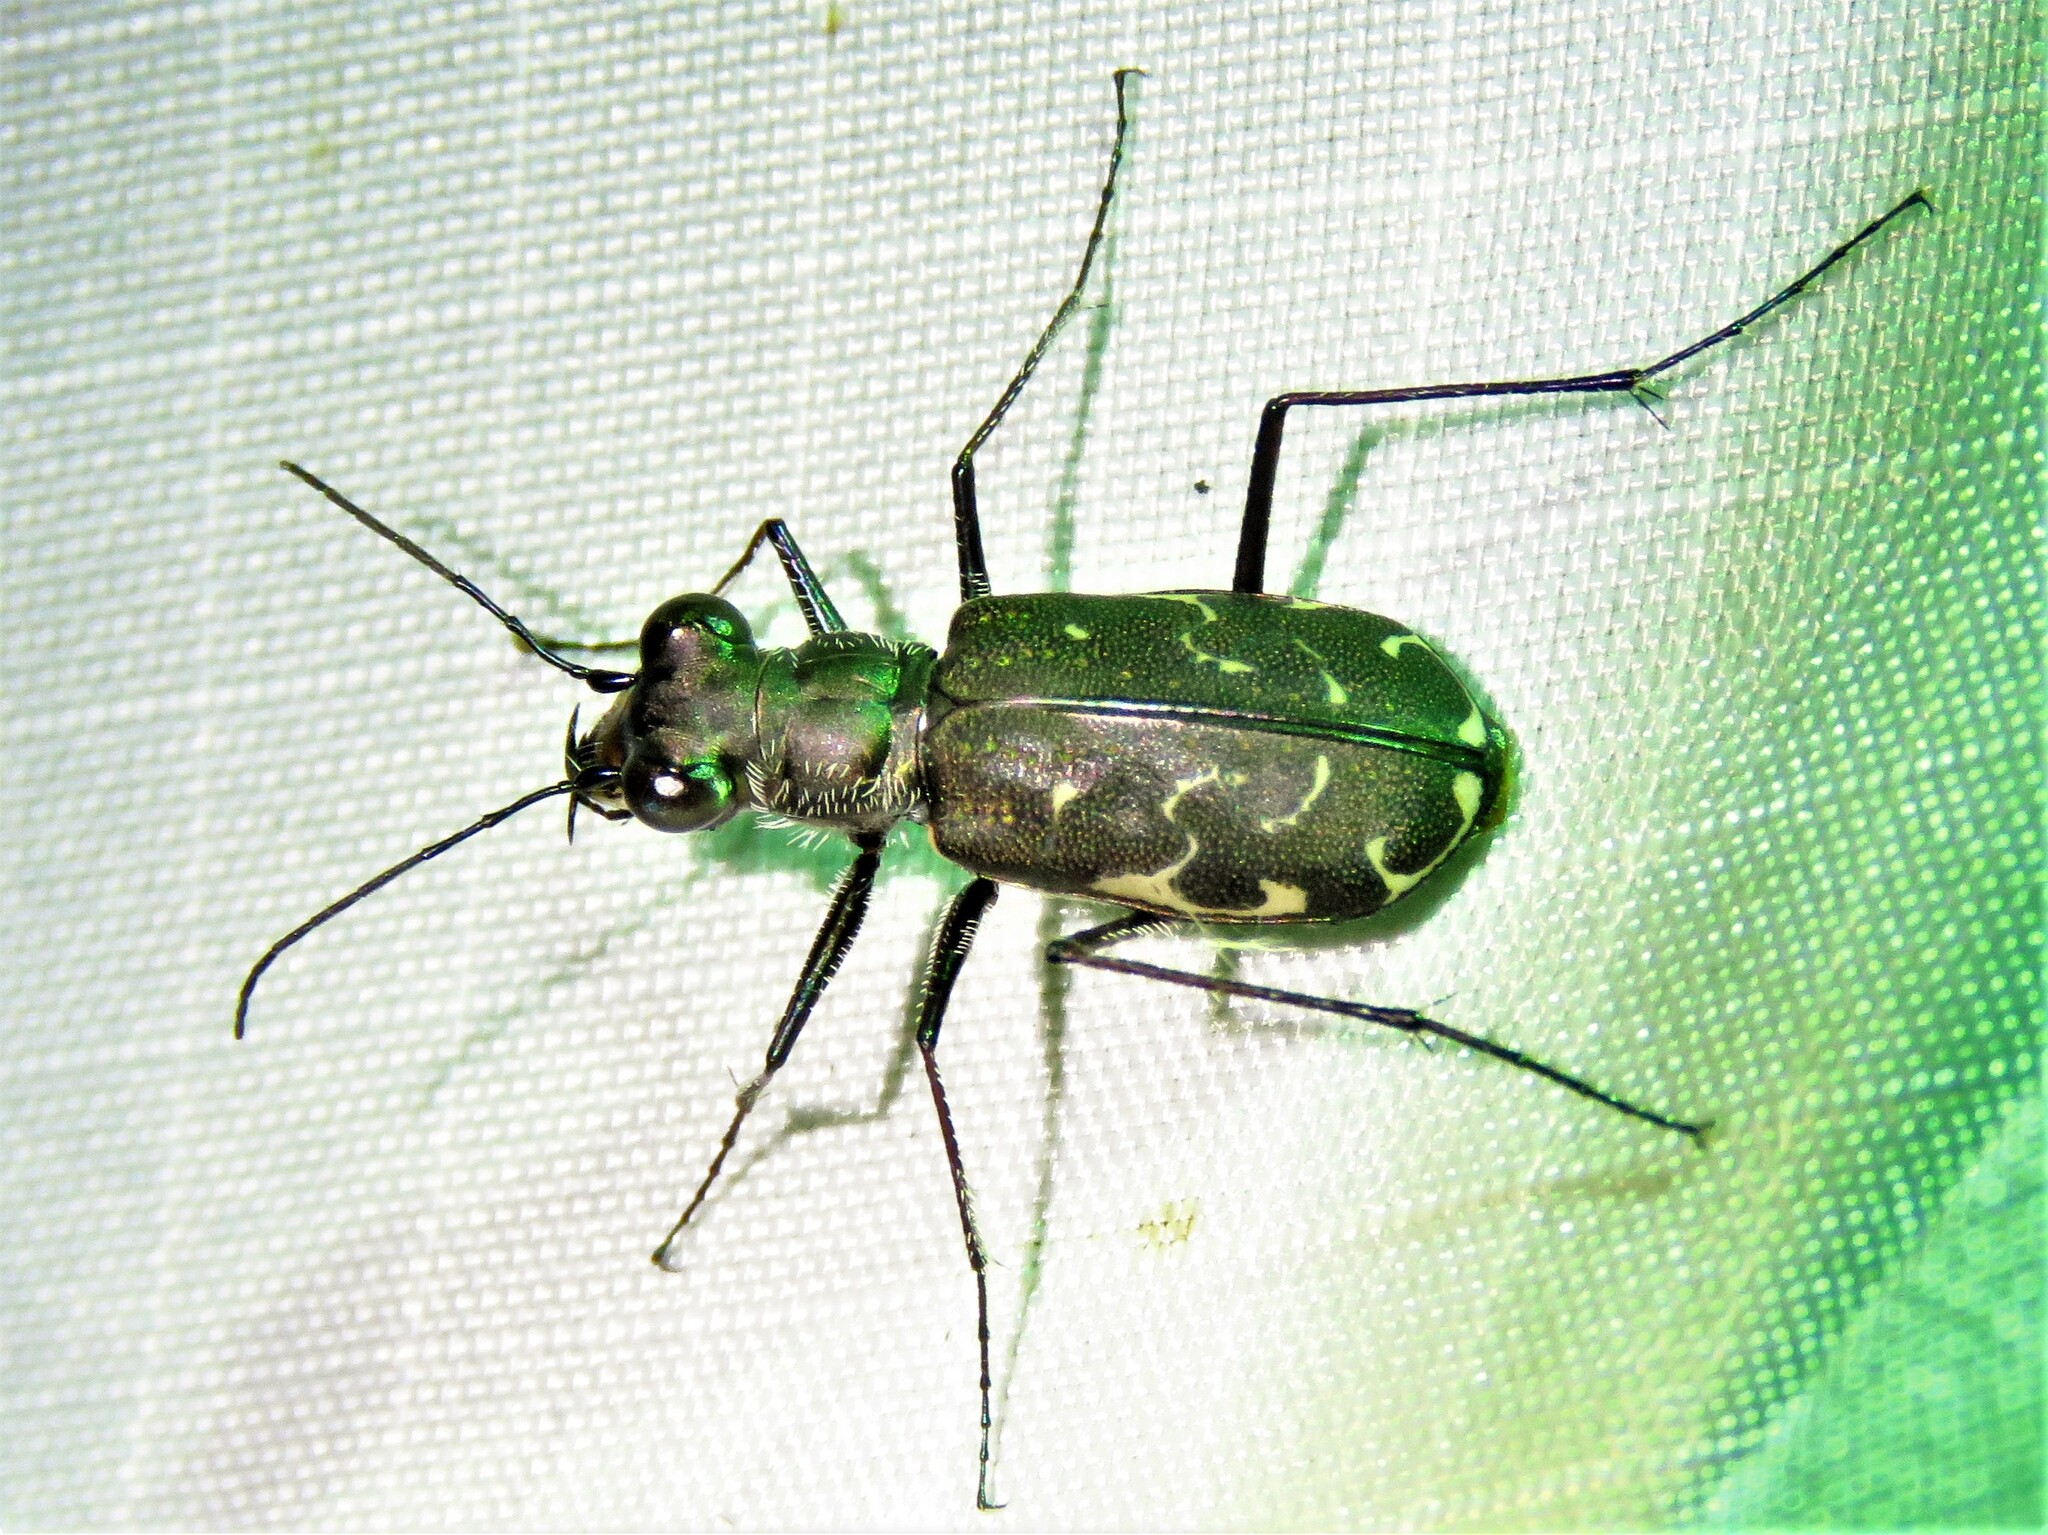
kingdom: Animalia
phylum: Arthropoda
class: Insecta
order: Coleoptera
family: Carabidae
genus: Cicindela
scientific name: Cicindela trifasciata
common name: Mudflat tiger beetle
